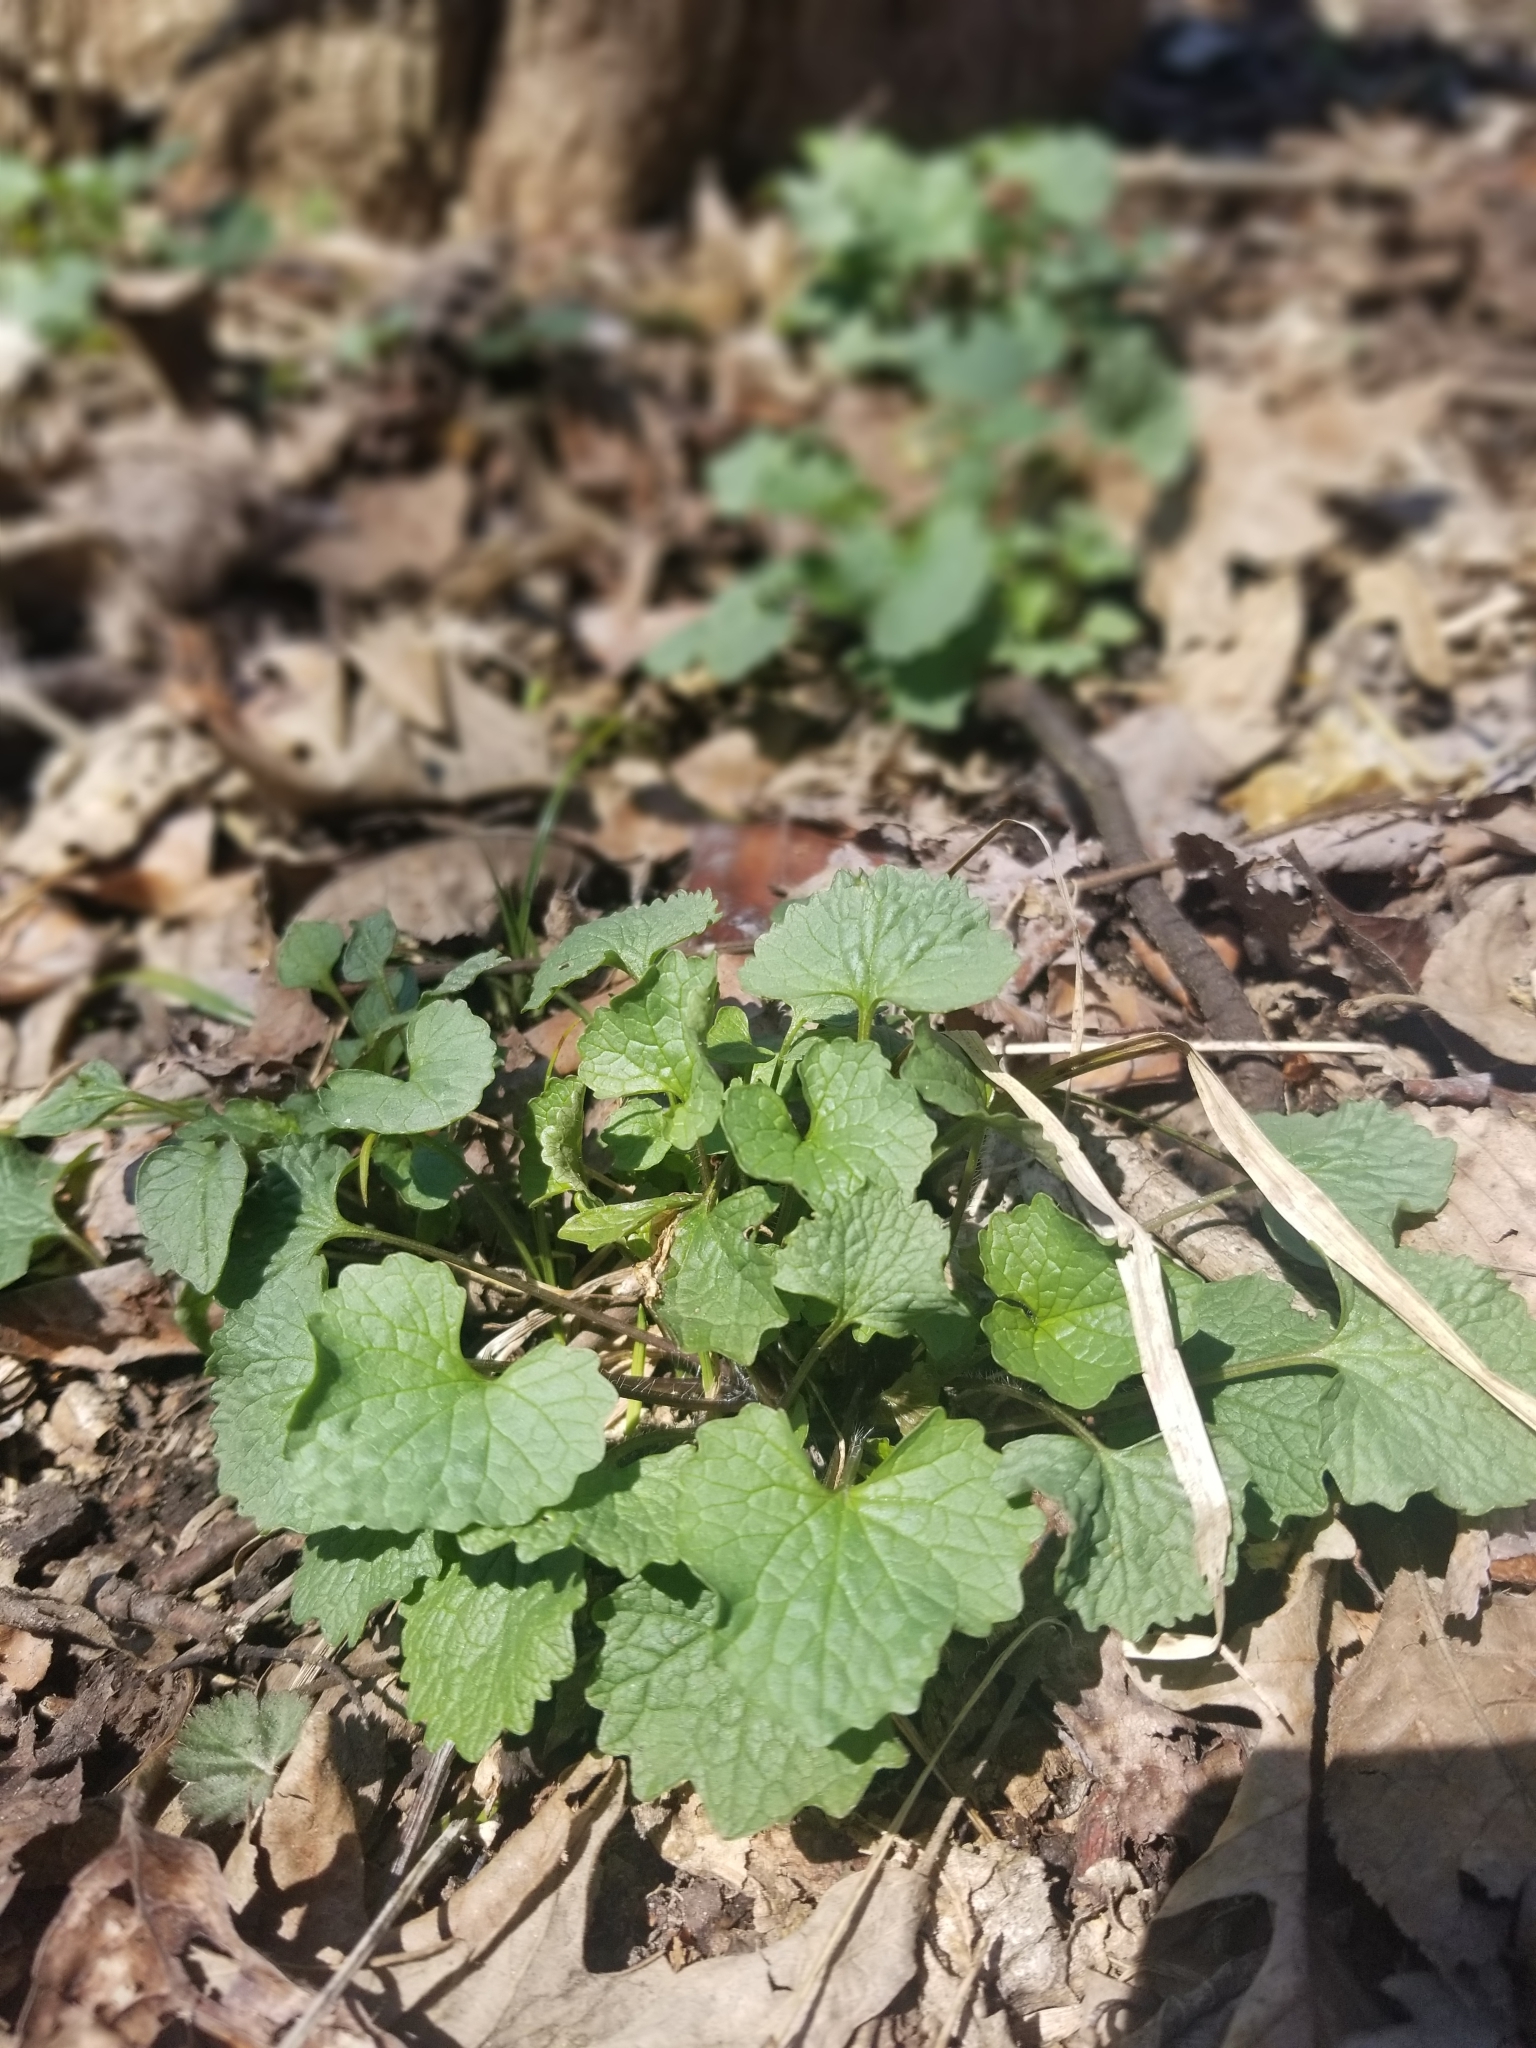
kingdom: Plantae
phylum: Tracheophyta
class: Magnoliopsida
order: Brassicales
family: Brassicaceae
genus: Alliaria
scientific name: Alliaria petiolata
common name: Garlic mustard
